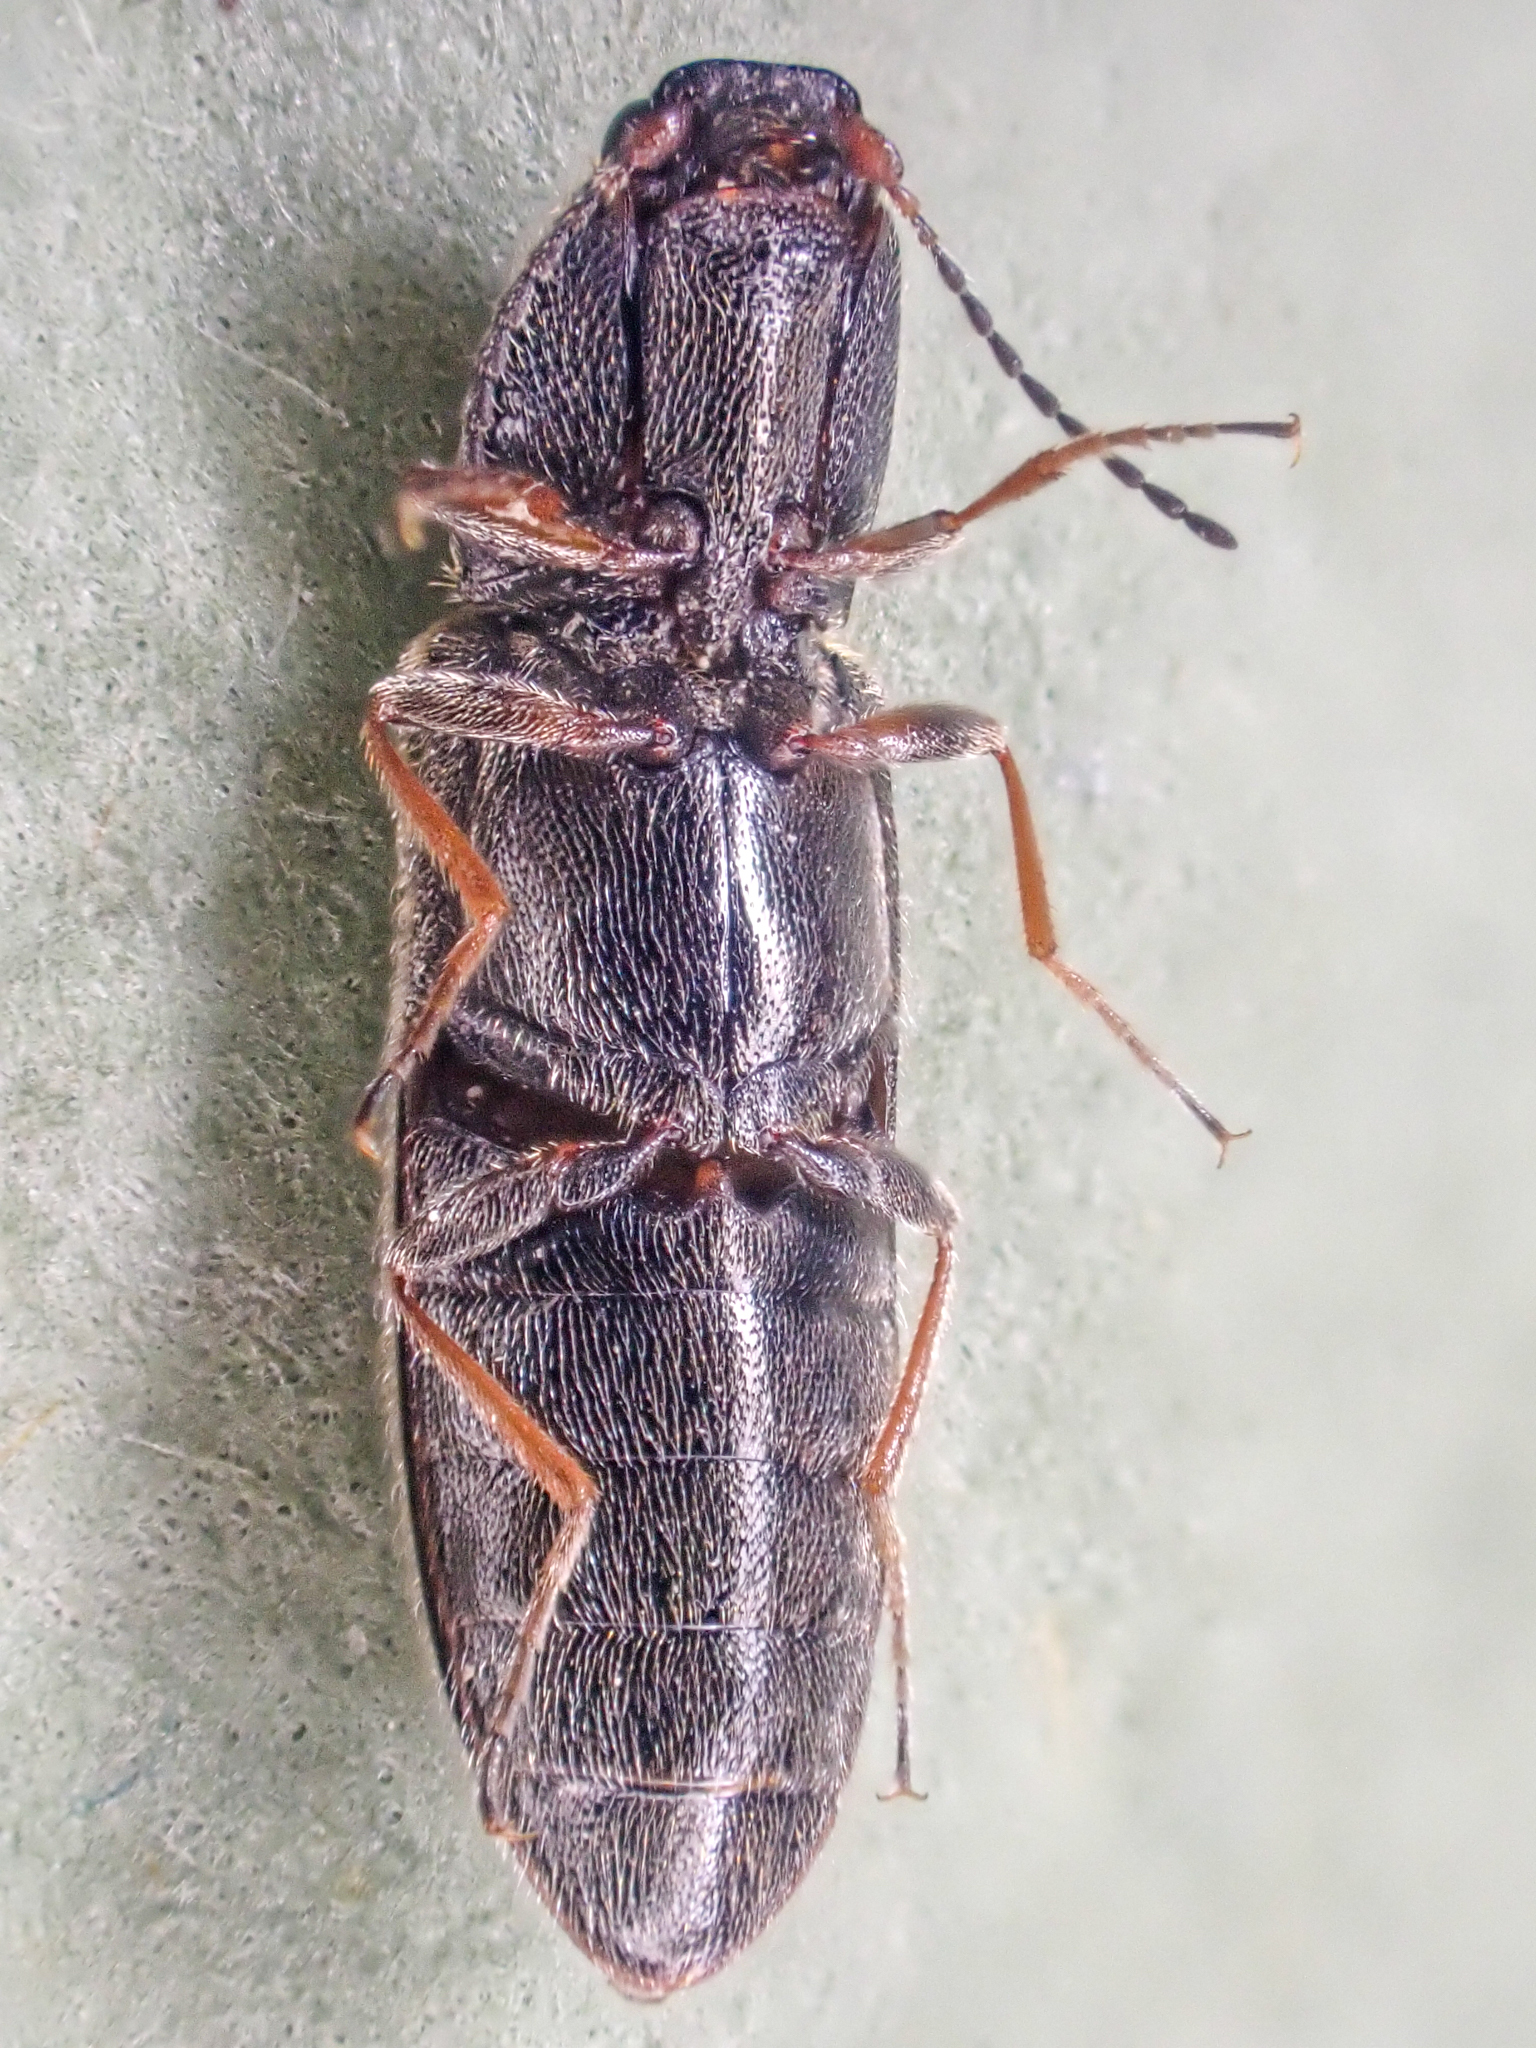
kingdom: Animalia
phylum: Arthropoda
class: Insecta
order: Coleoptera
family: Elateridae
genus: Limonius
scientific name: Limonius aeger
